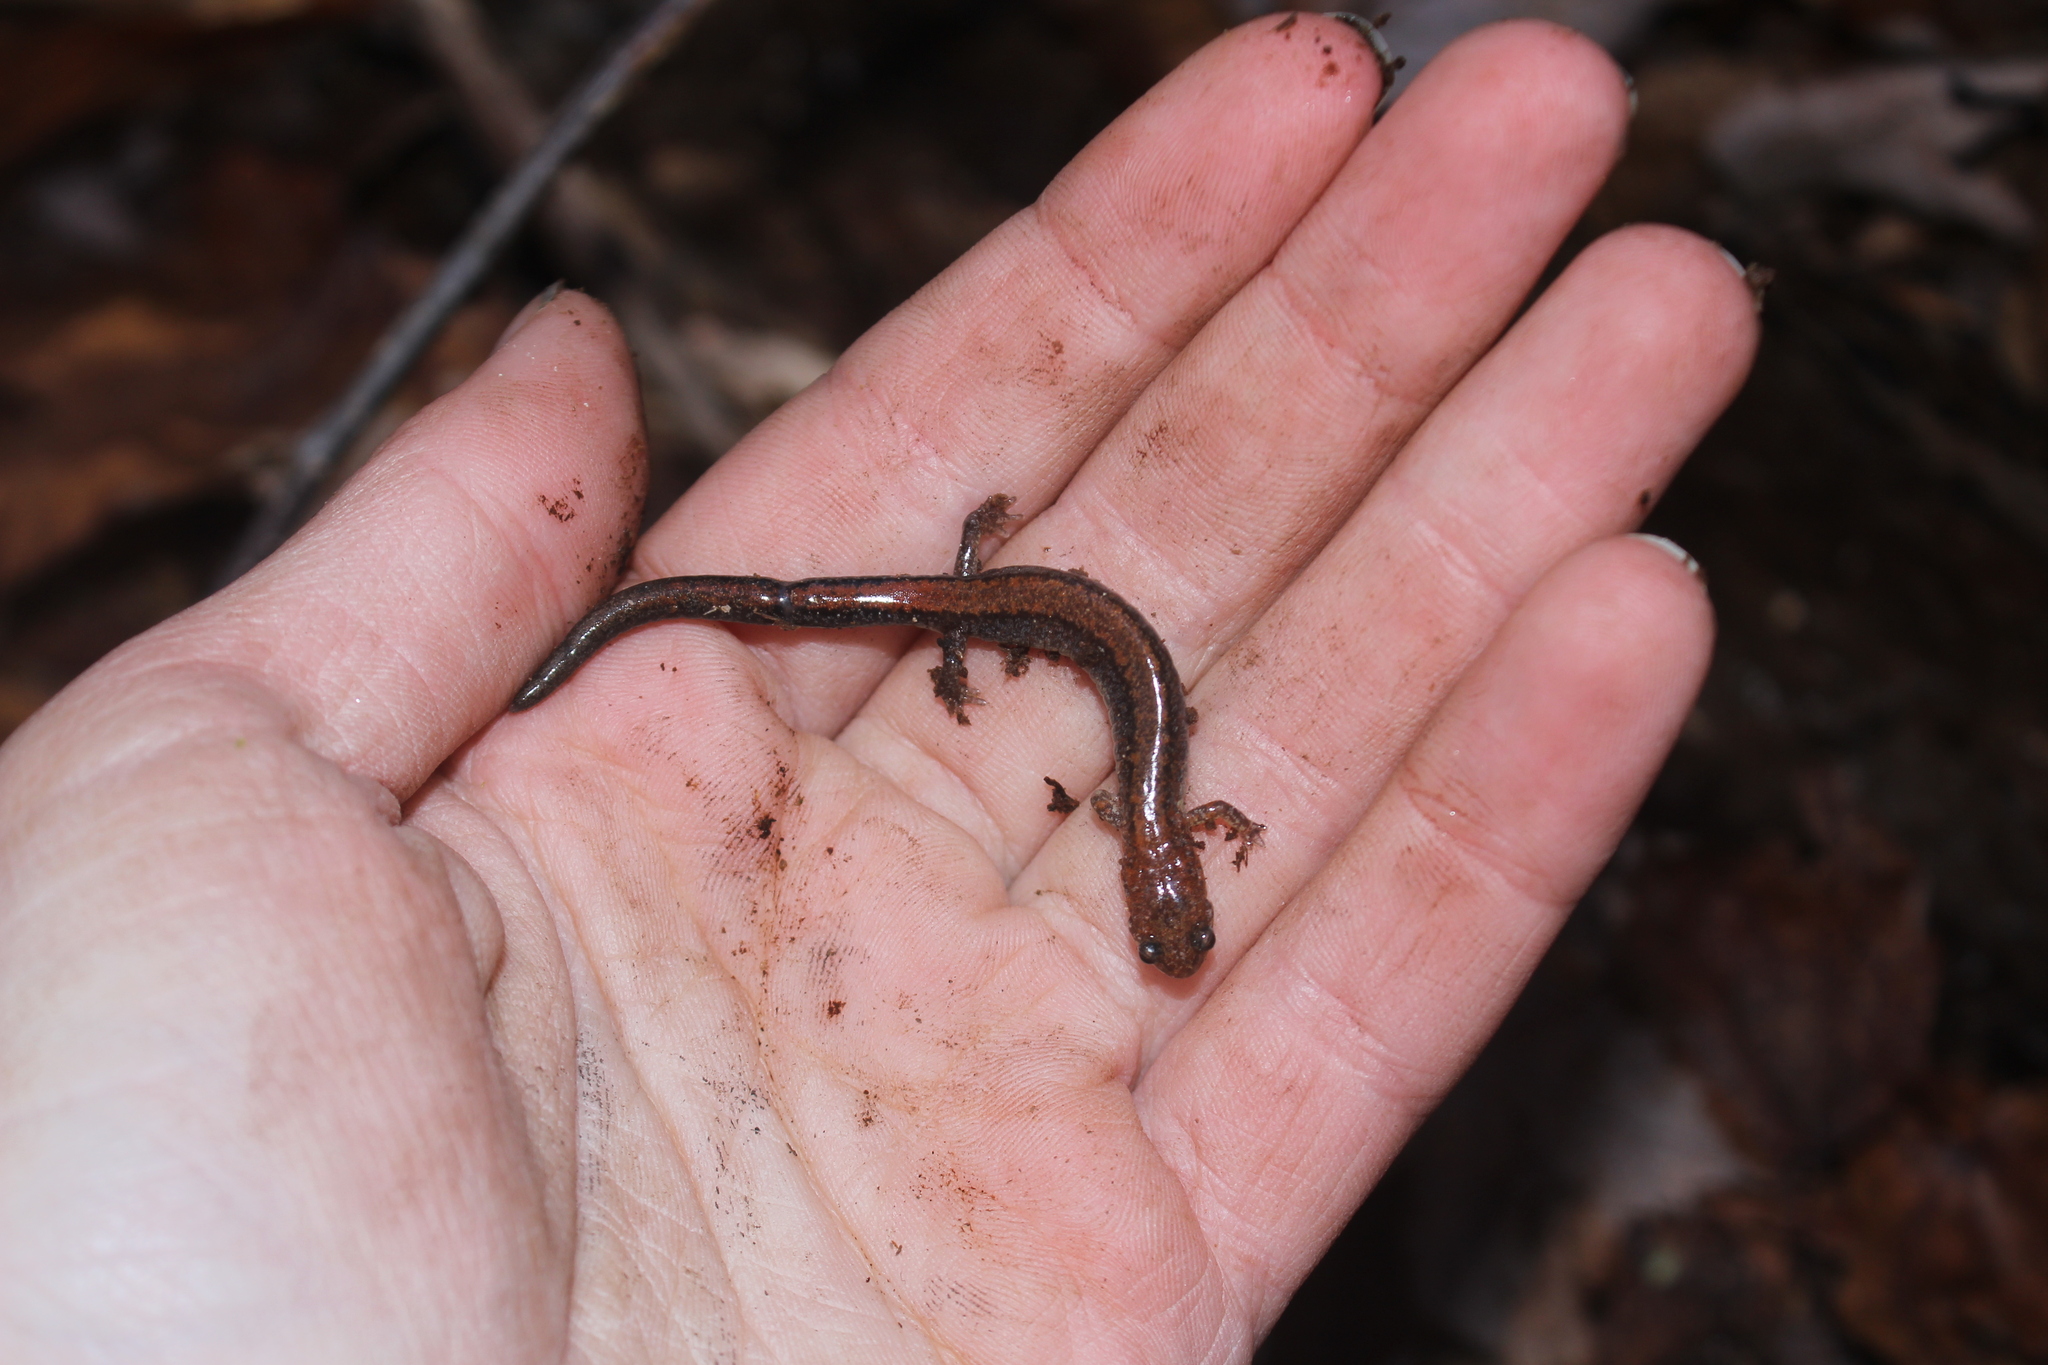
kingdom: Animalia
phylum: Chordata
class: Amphibia
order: Caudata
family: Plethodontidae
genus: Plethodon
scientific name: Plethodon cinereus
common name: Redback salamander
